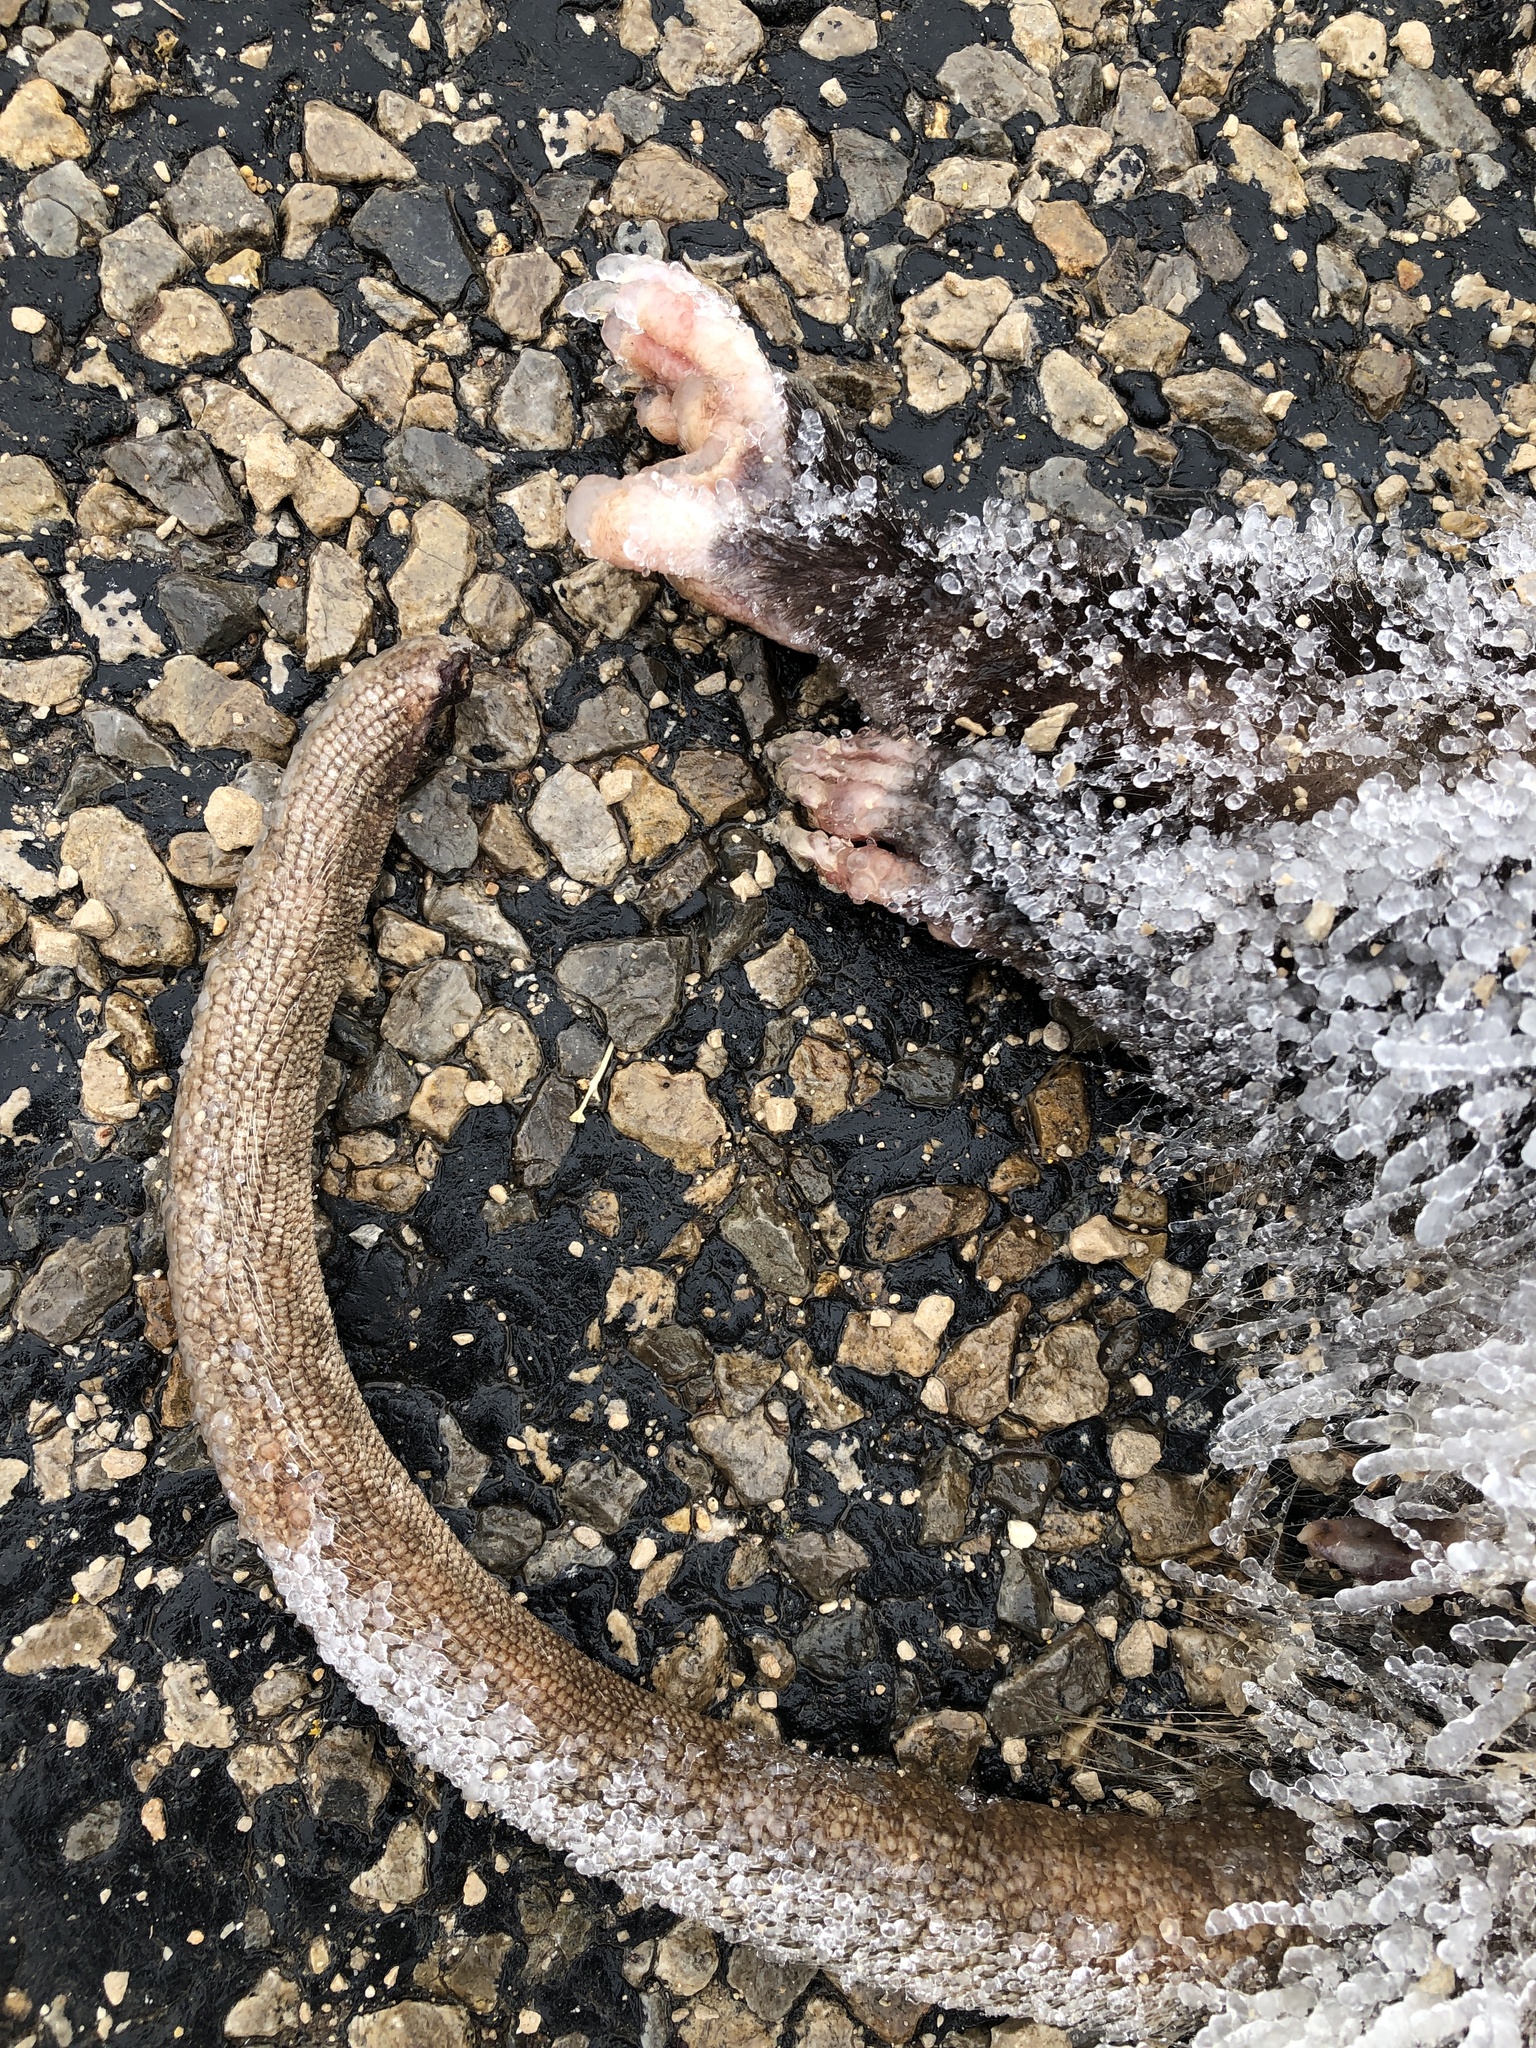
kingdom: Animalia
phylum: Chordata
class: Mammalia
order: Didelphimorphia
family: Didelphidae
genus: Didelphis
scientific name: Didelphis virginiana
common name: Virginia opossum
